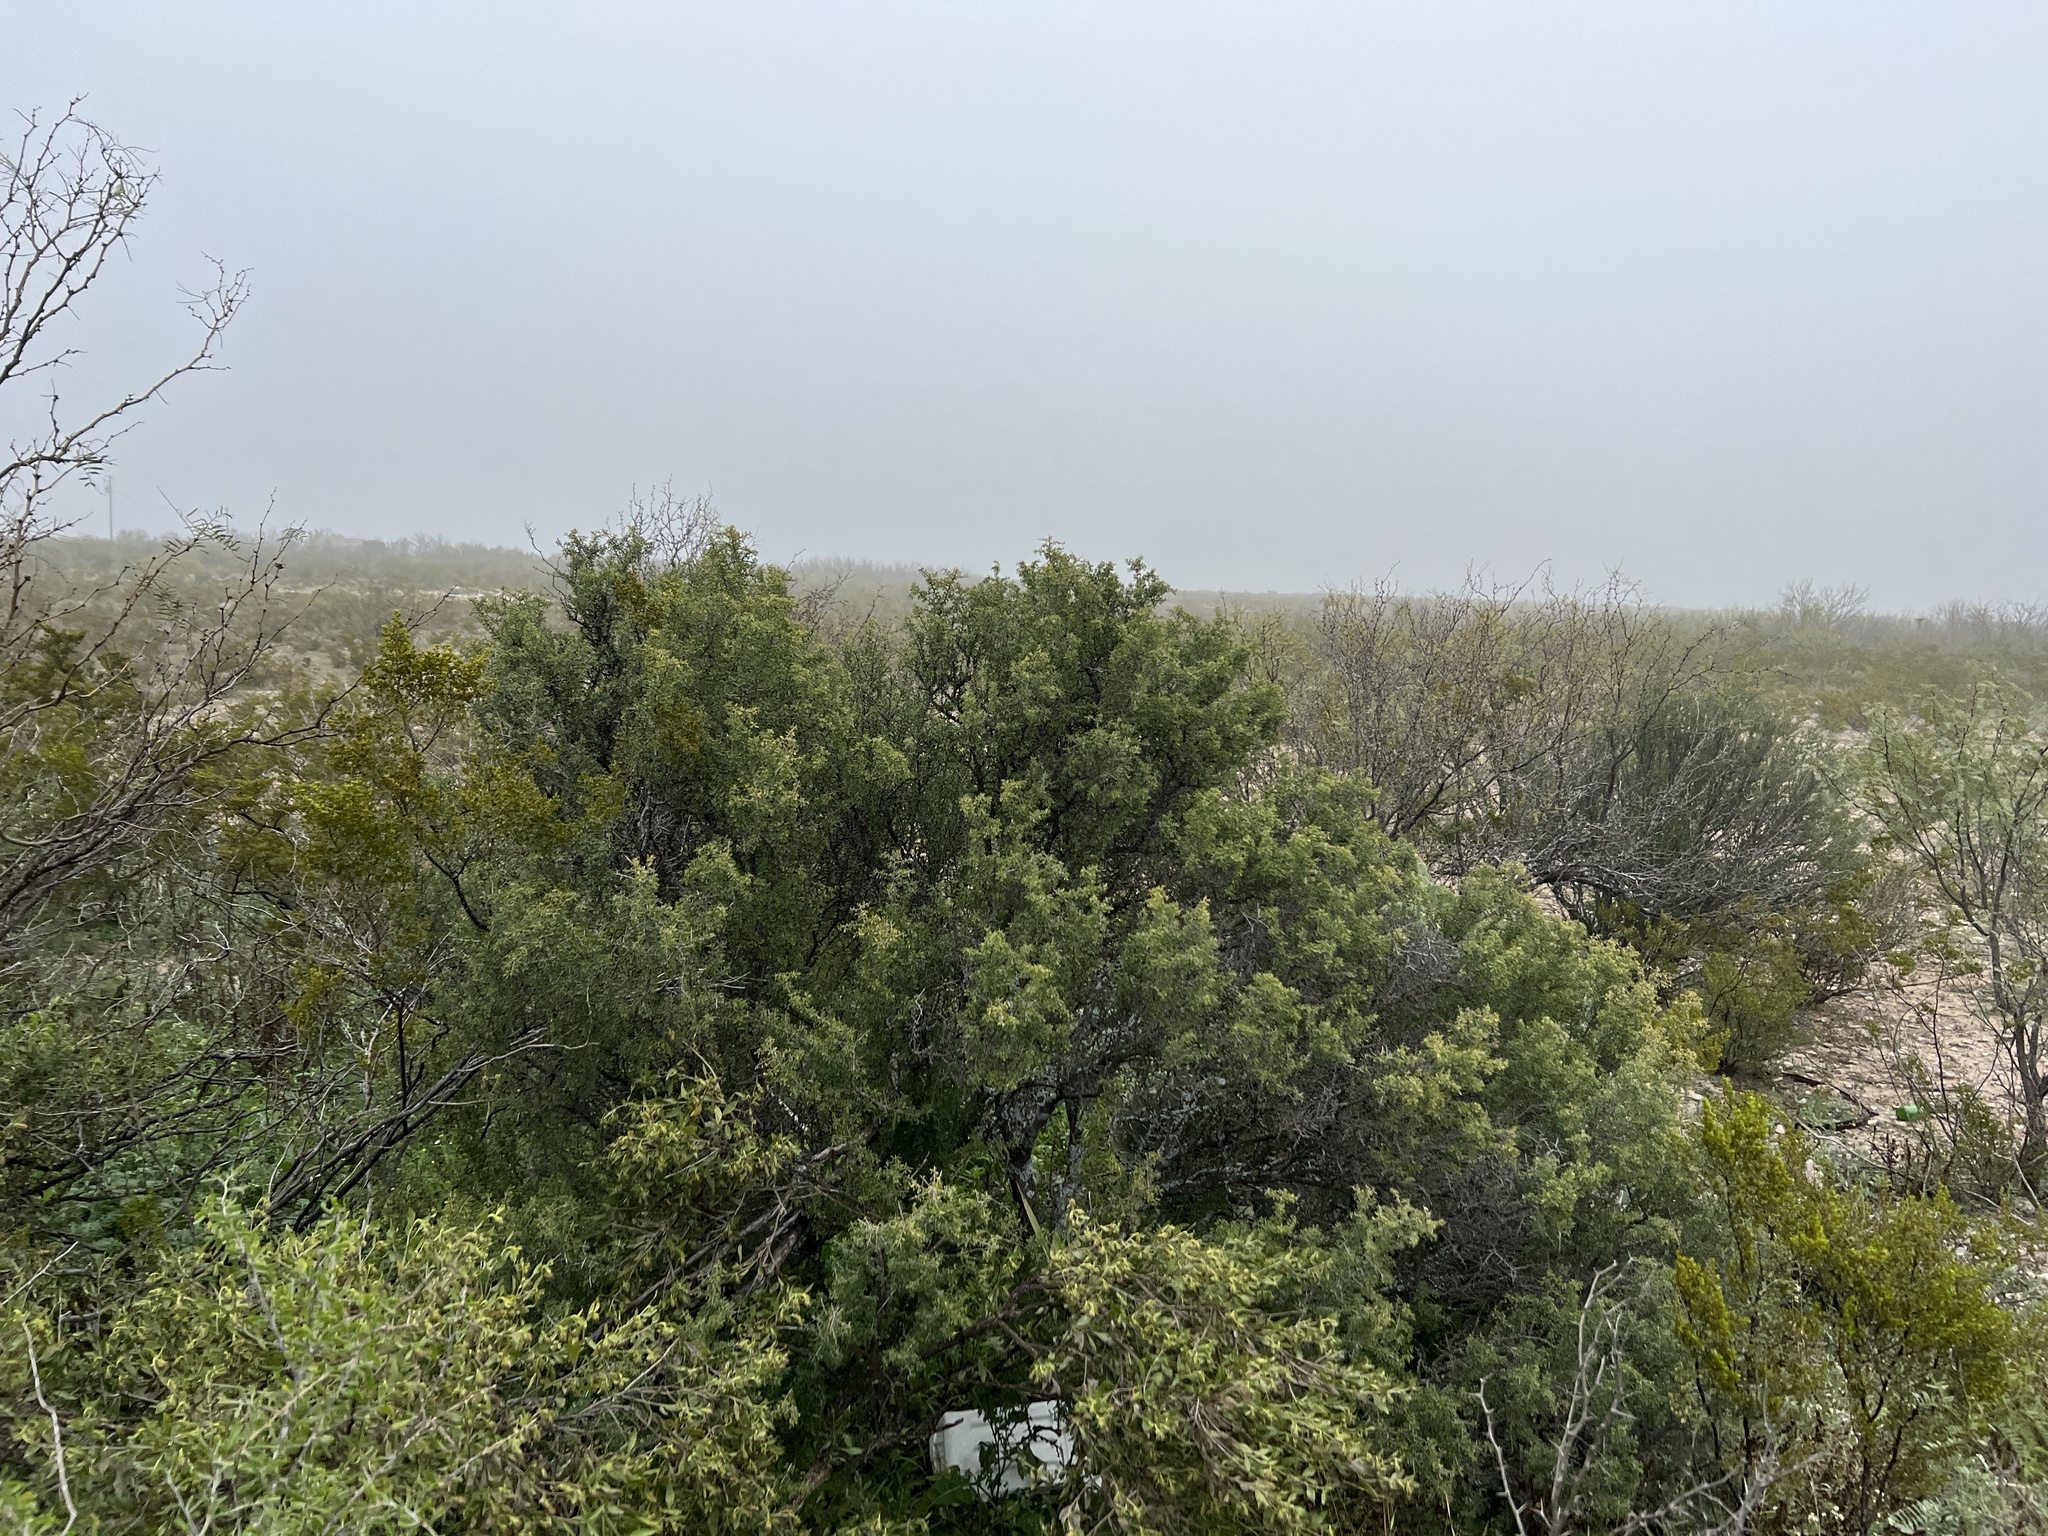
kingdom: Plantae
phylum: Tracheophyta
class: Magnoliopsida
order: Asterales
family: Asteraceae
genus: Flourensia
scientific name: Flourensia cernua
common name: Varnishbush
